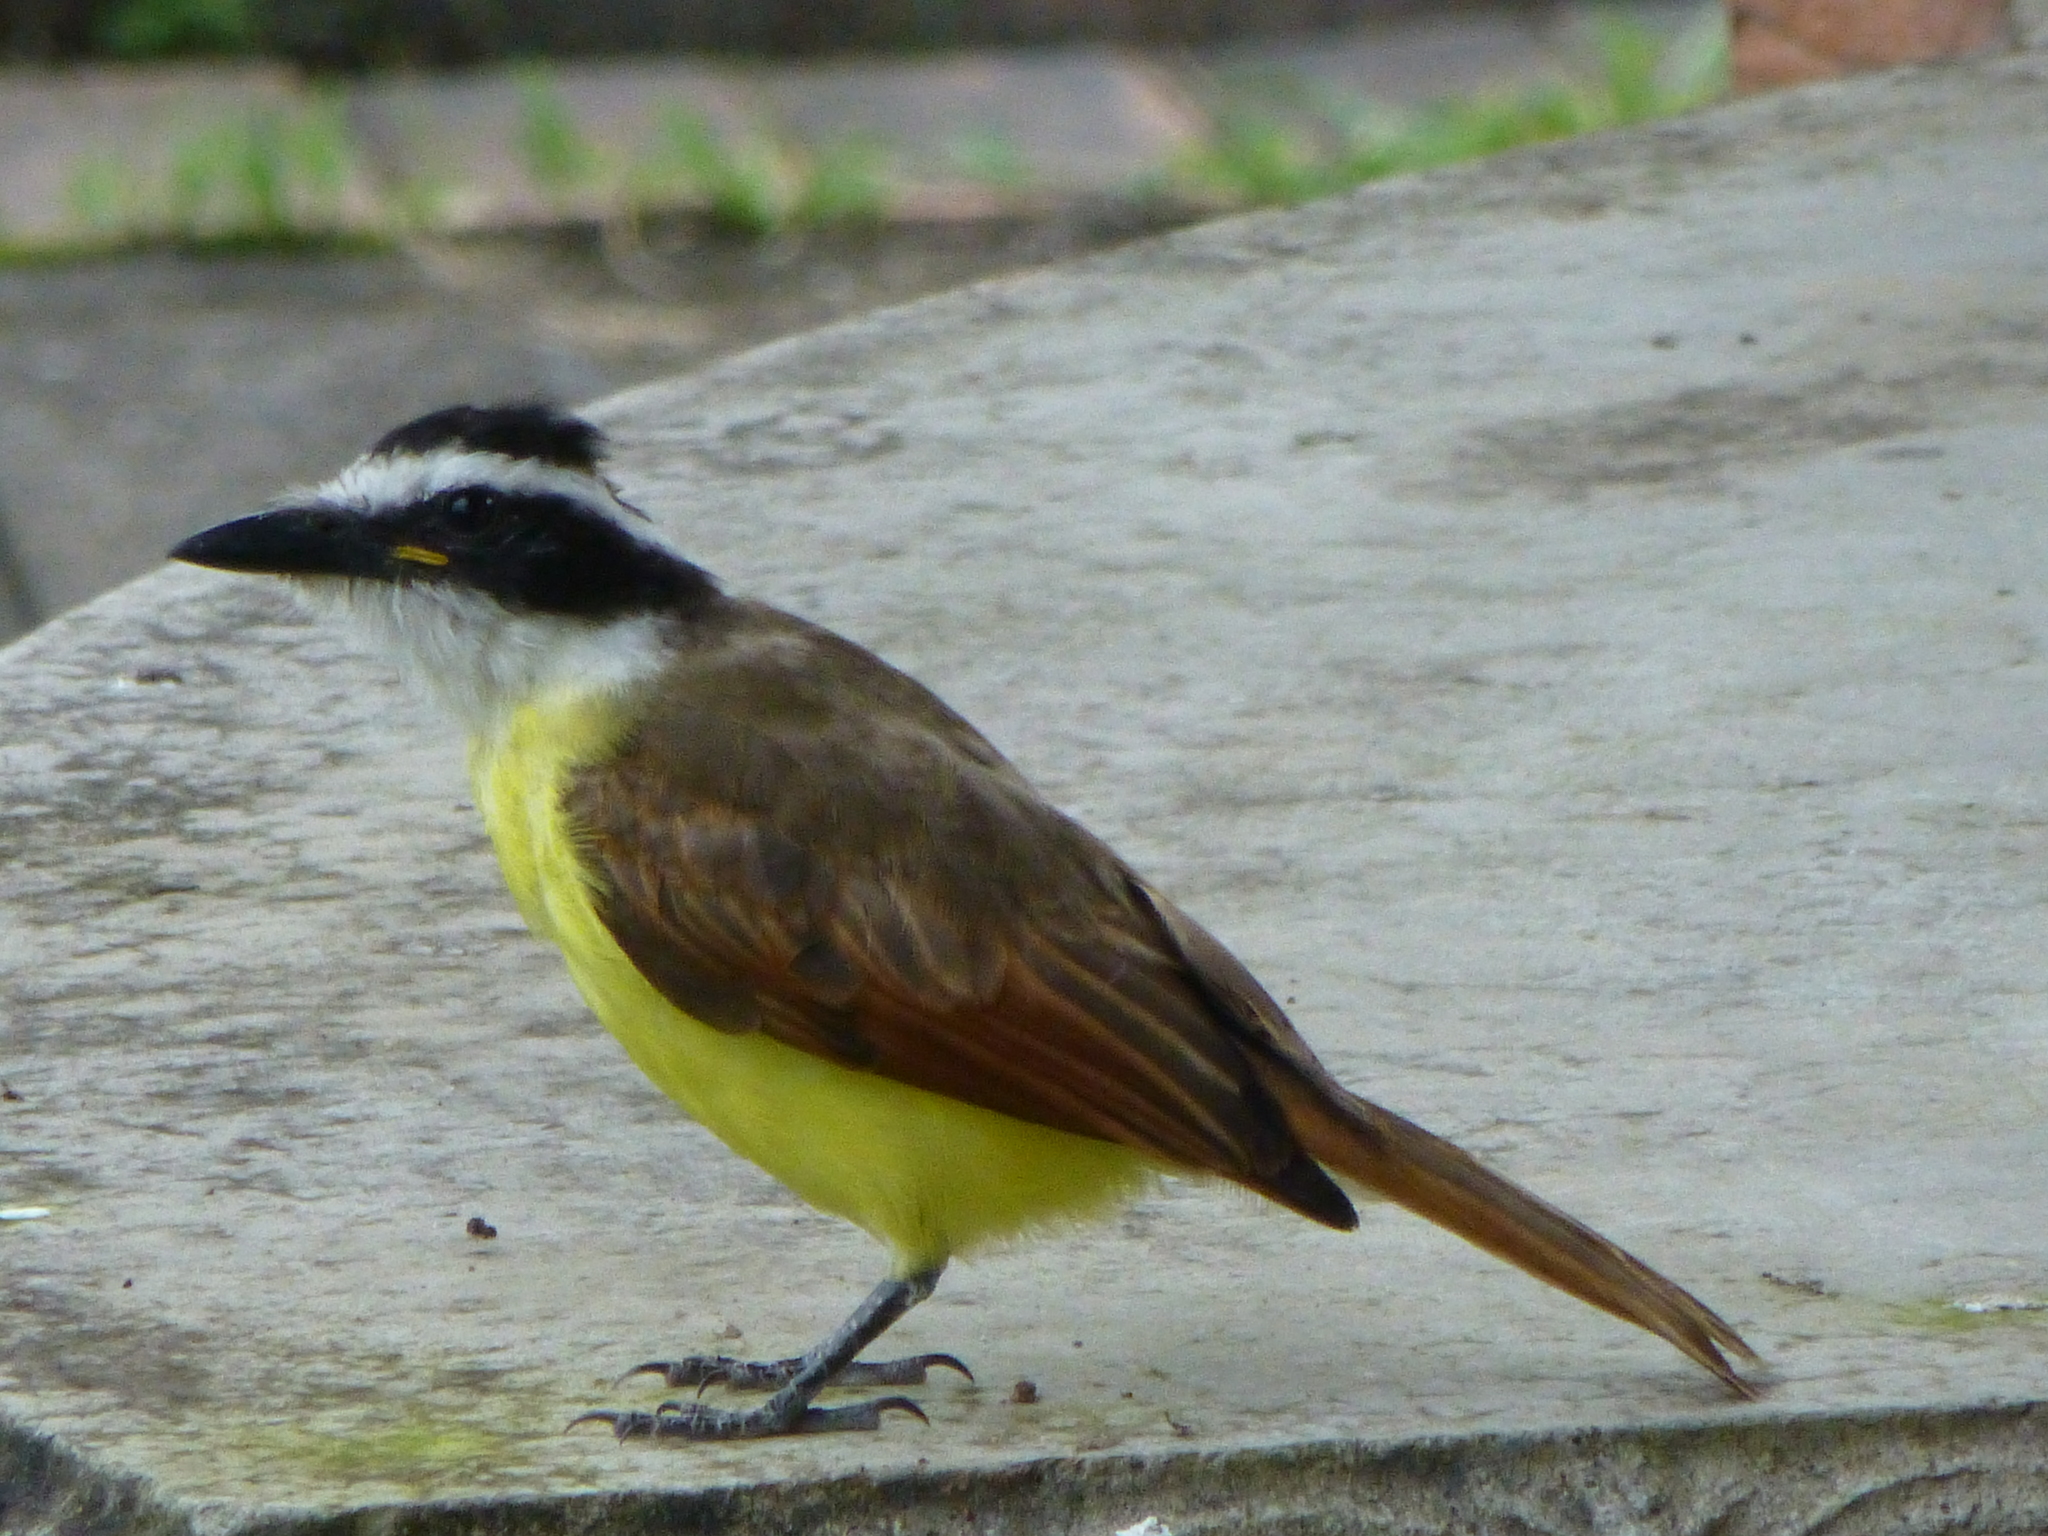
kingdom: Animalia
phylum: Chordata
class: Aves
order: Passeriformes
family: Tyrannidae
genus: Pitangus
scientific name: Pitangus sulphuratus
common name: Great kiskadee
